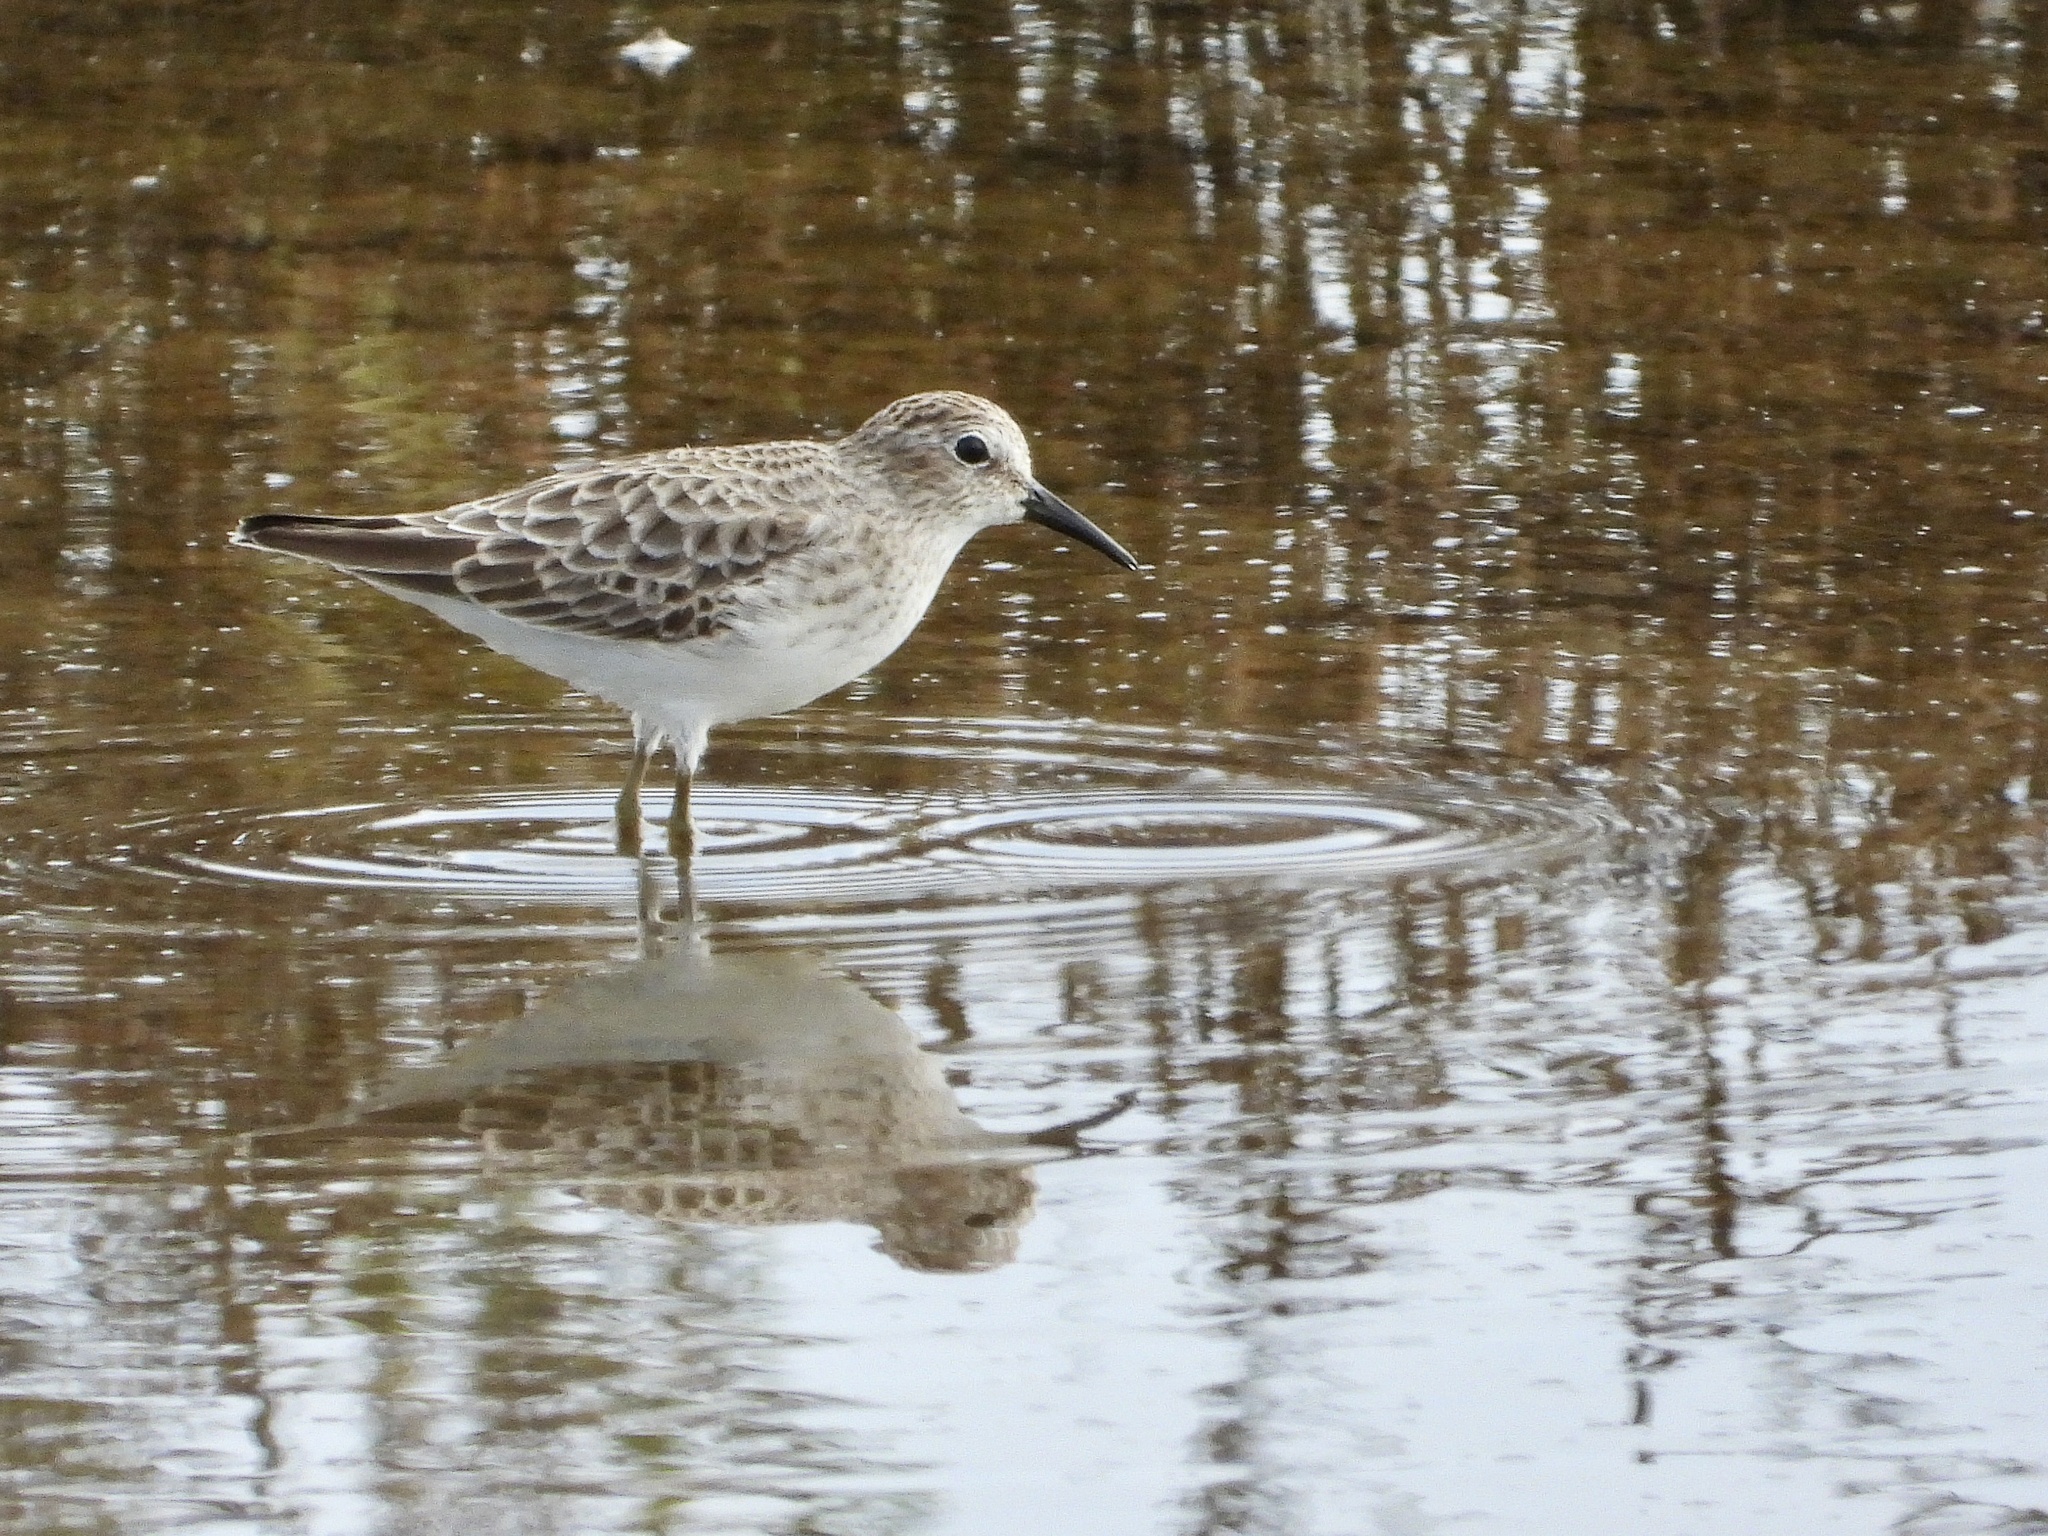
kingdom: Animalia
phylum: Chordata
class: Aves
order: Charadriiformes
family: Scolopacidae
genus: Calidris
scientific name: Calidris minutilla
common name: Least sandpiper
